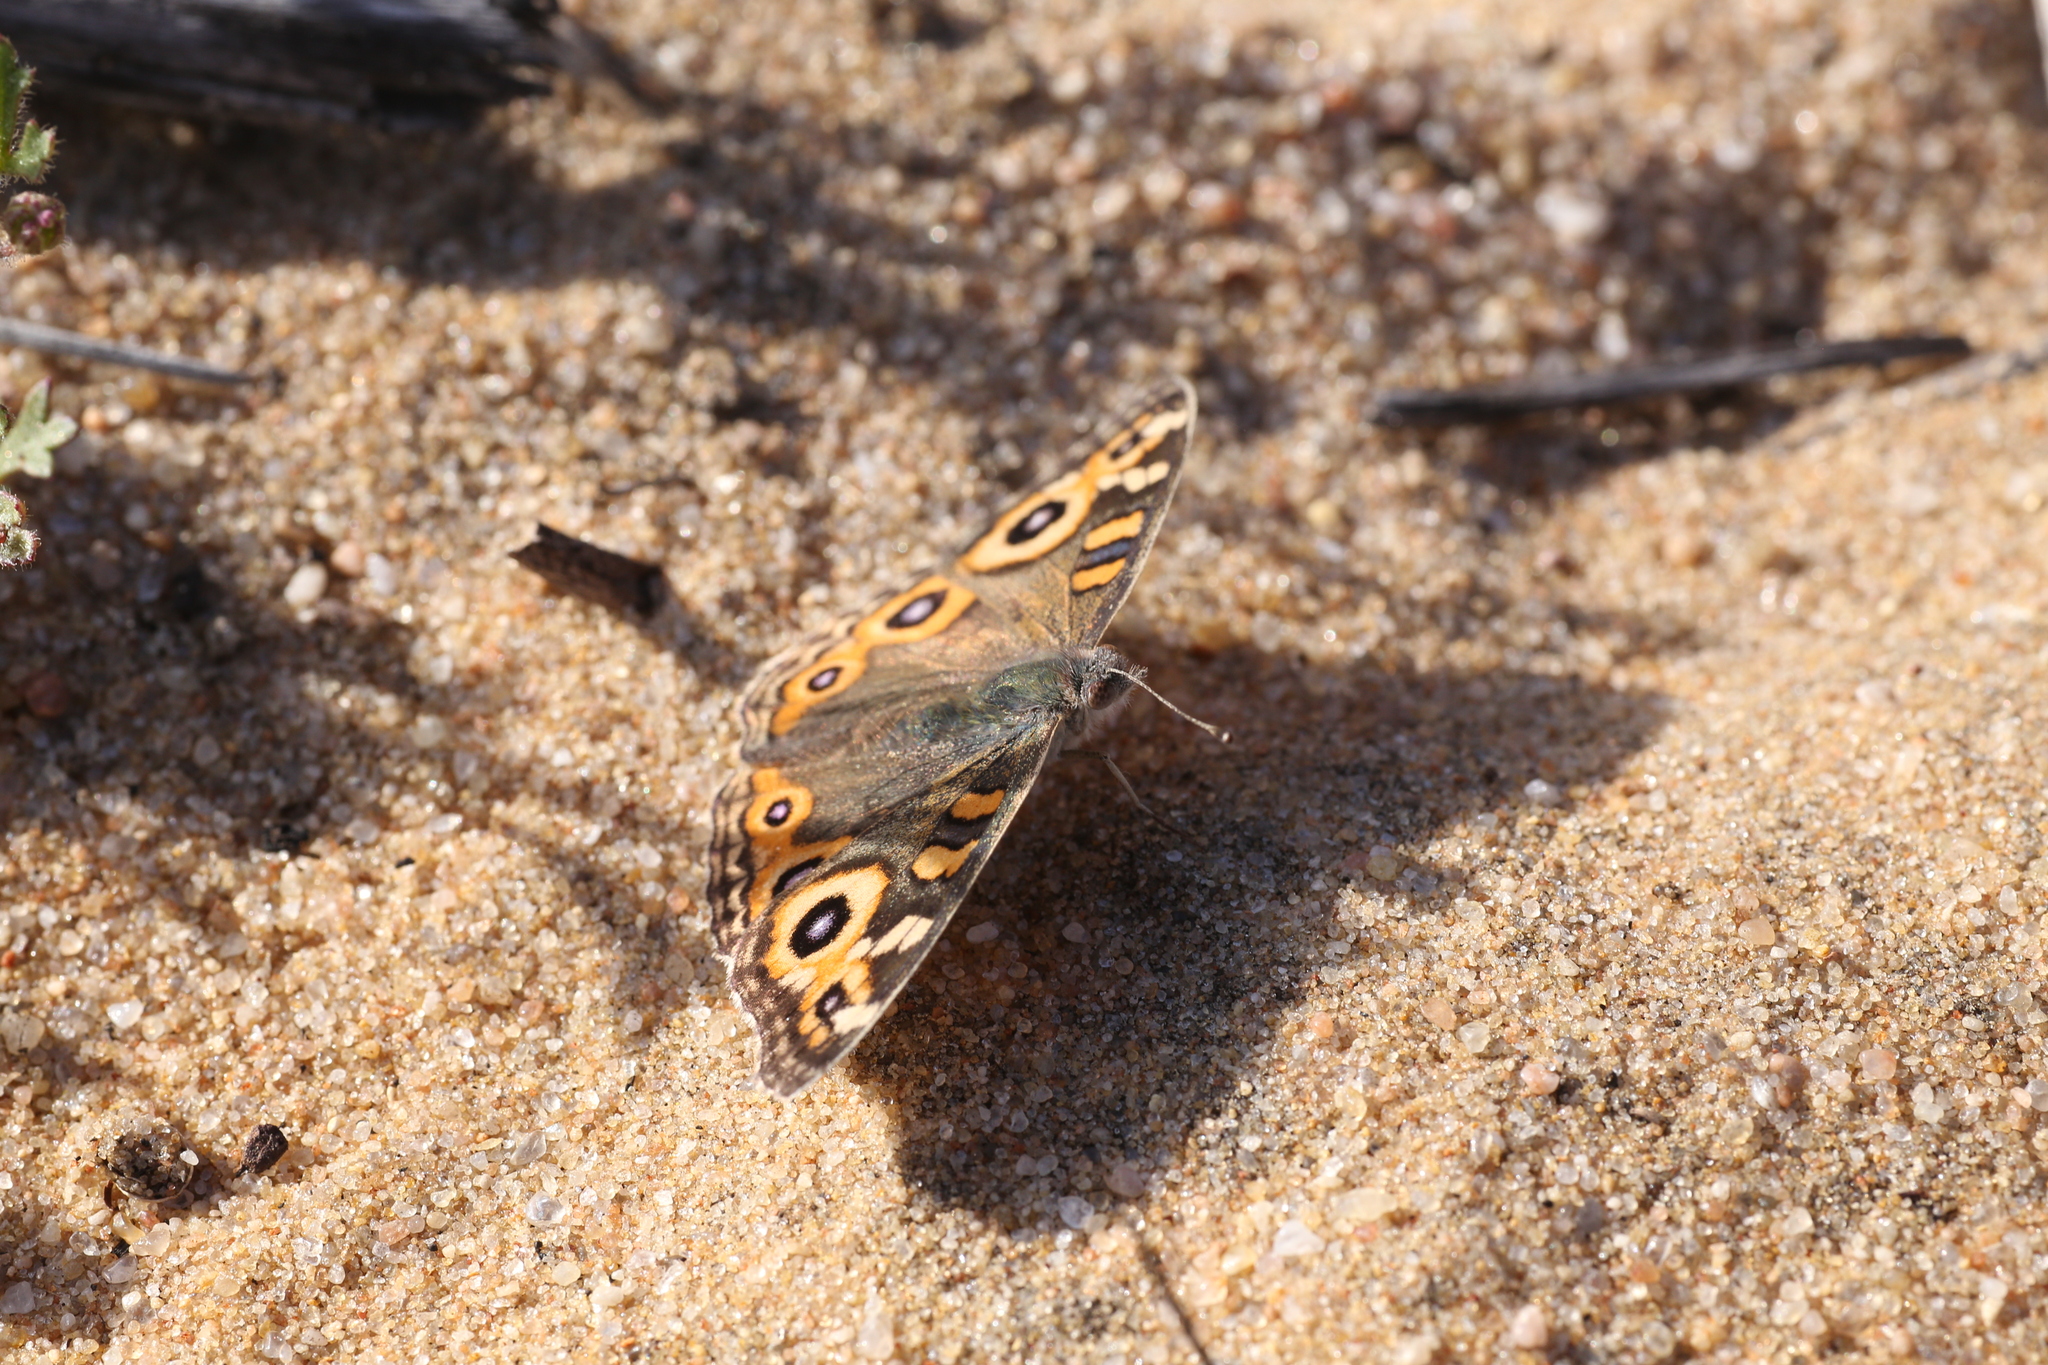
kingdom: Animalia
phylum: Arthropoda
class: Insecta
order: Lepidoptera
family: Nymphalidae
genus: Junonia
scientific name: Junonia villida
